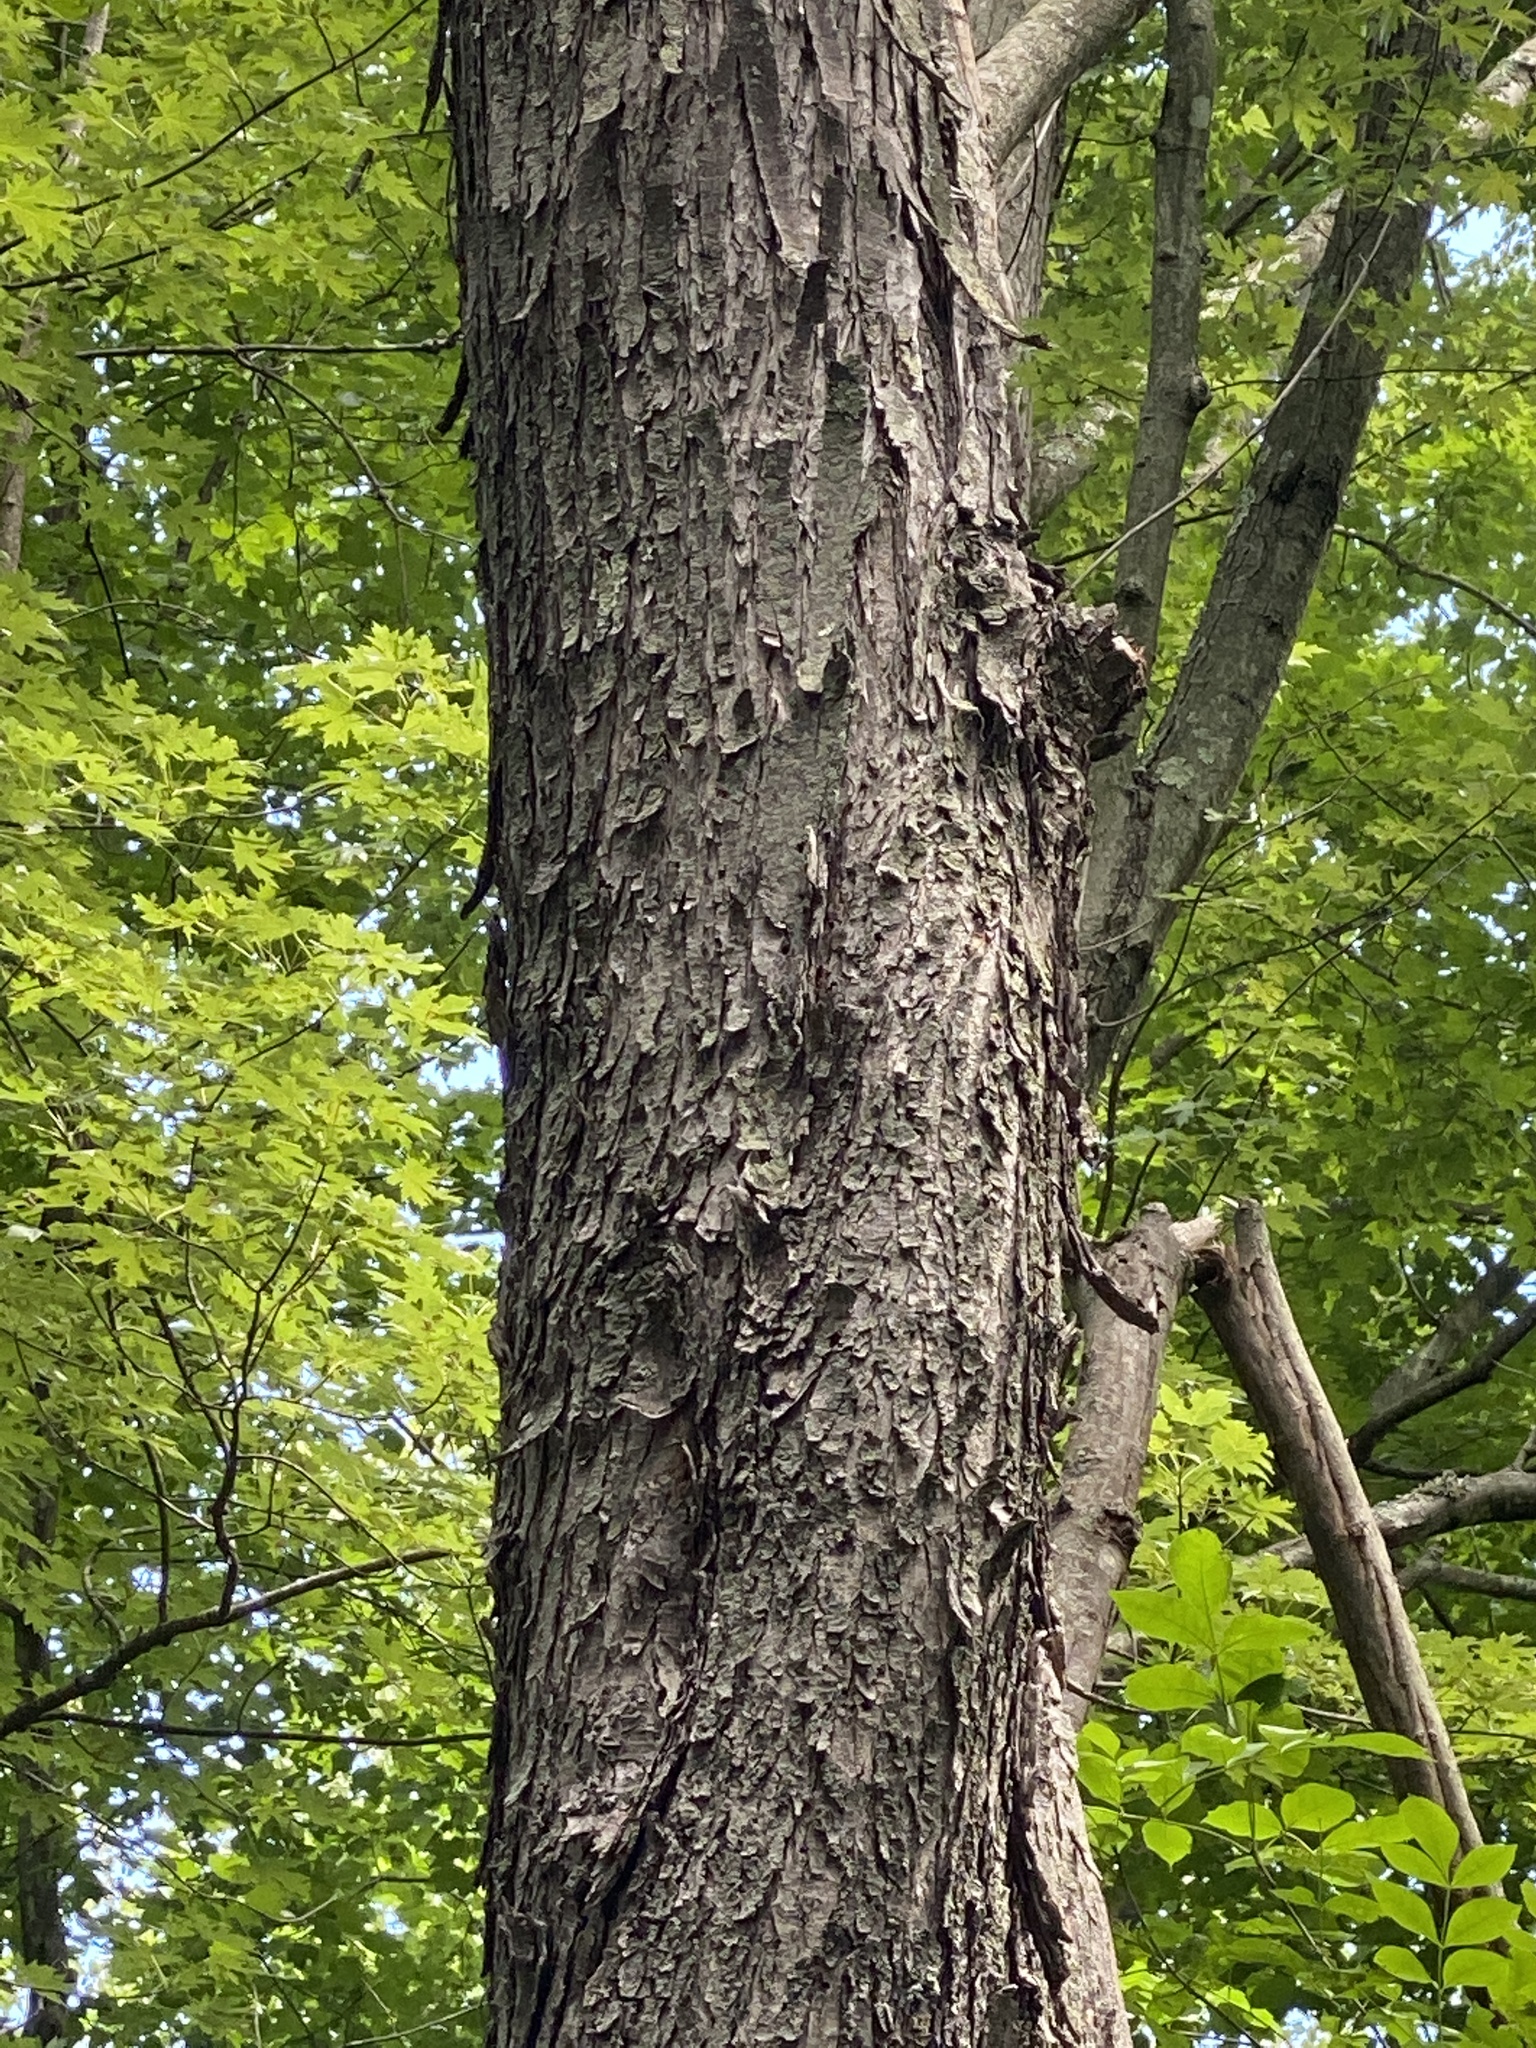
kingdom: Plantae
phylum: Tracheophyta
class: Magnoliopsida
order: Sapindales
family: Sapindaceae
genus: Acer
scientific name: Acer saccharinum
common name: Silver maple
